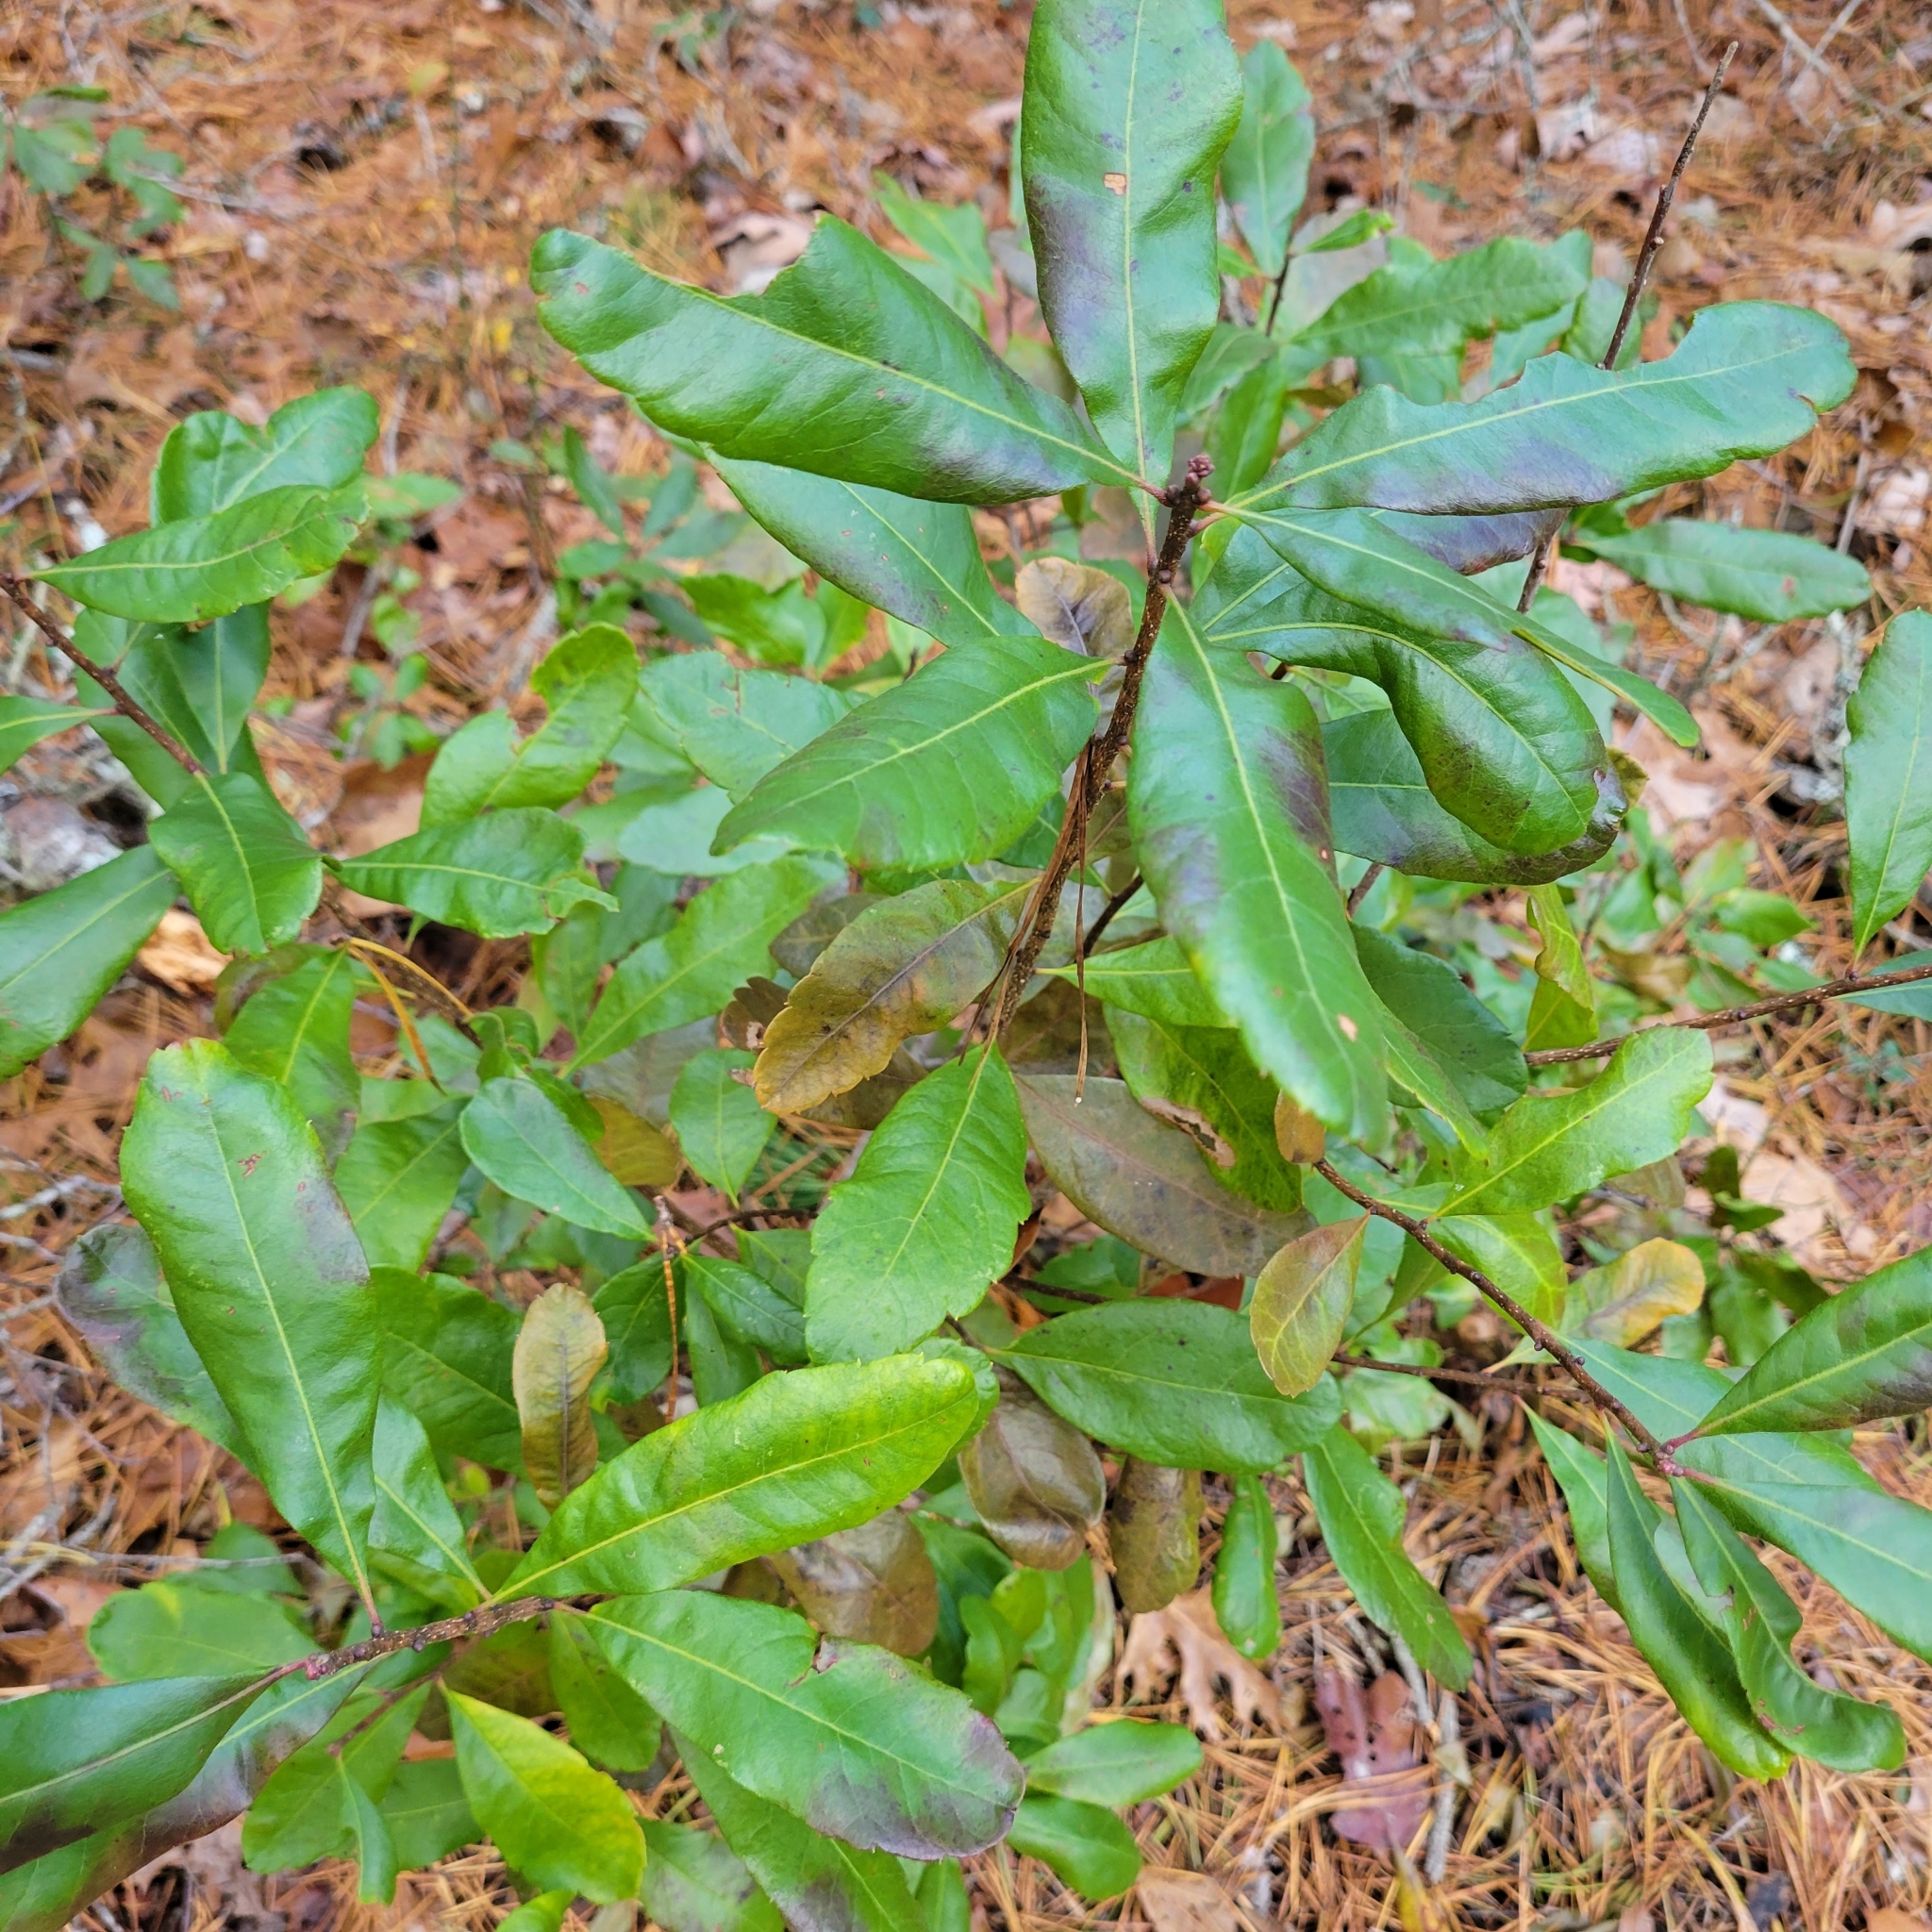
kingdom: Plantae
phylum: Tracheophyta
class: Magnoliopsida
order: Fagales
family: Myricaceae
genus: Morella
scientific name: Morella pensylvanica
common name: Northern bayberry
